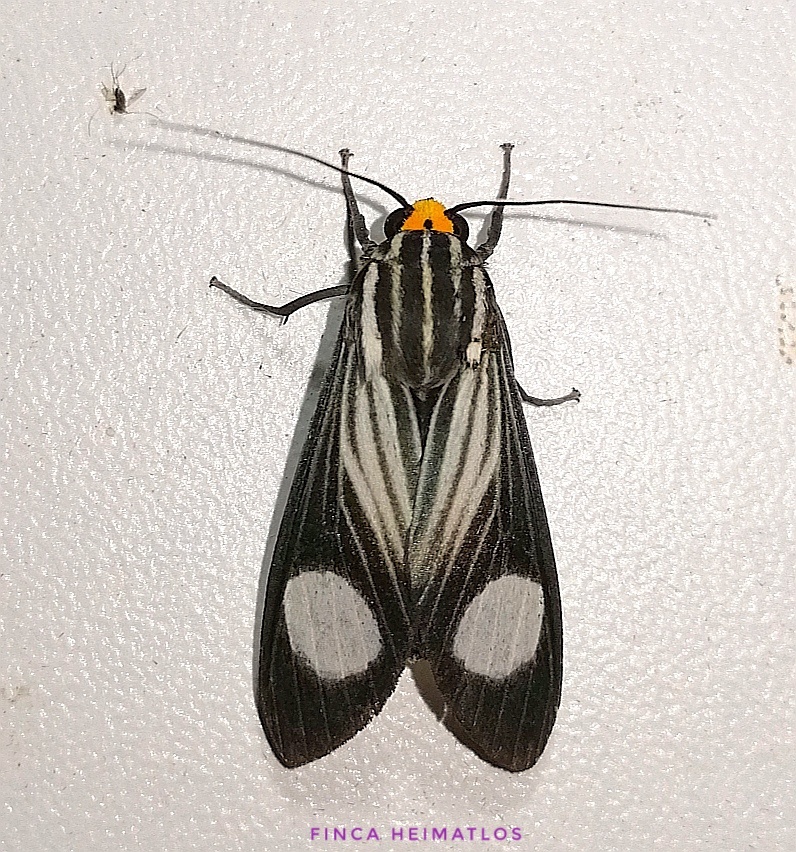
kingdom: Animalia
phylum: Arthropoda
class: Insecta
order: Lepidoptera
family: Erebidae
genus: Rhipha
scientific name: Rhipha niveomaculata
